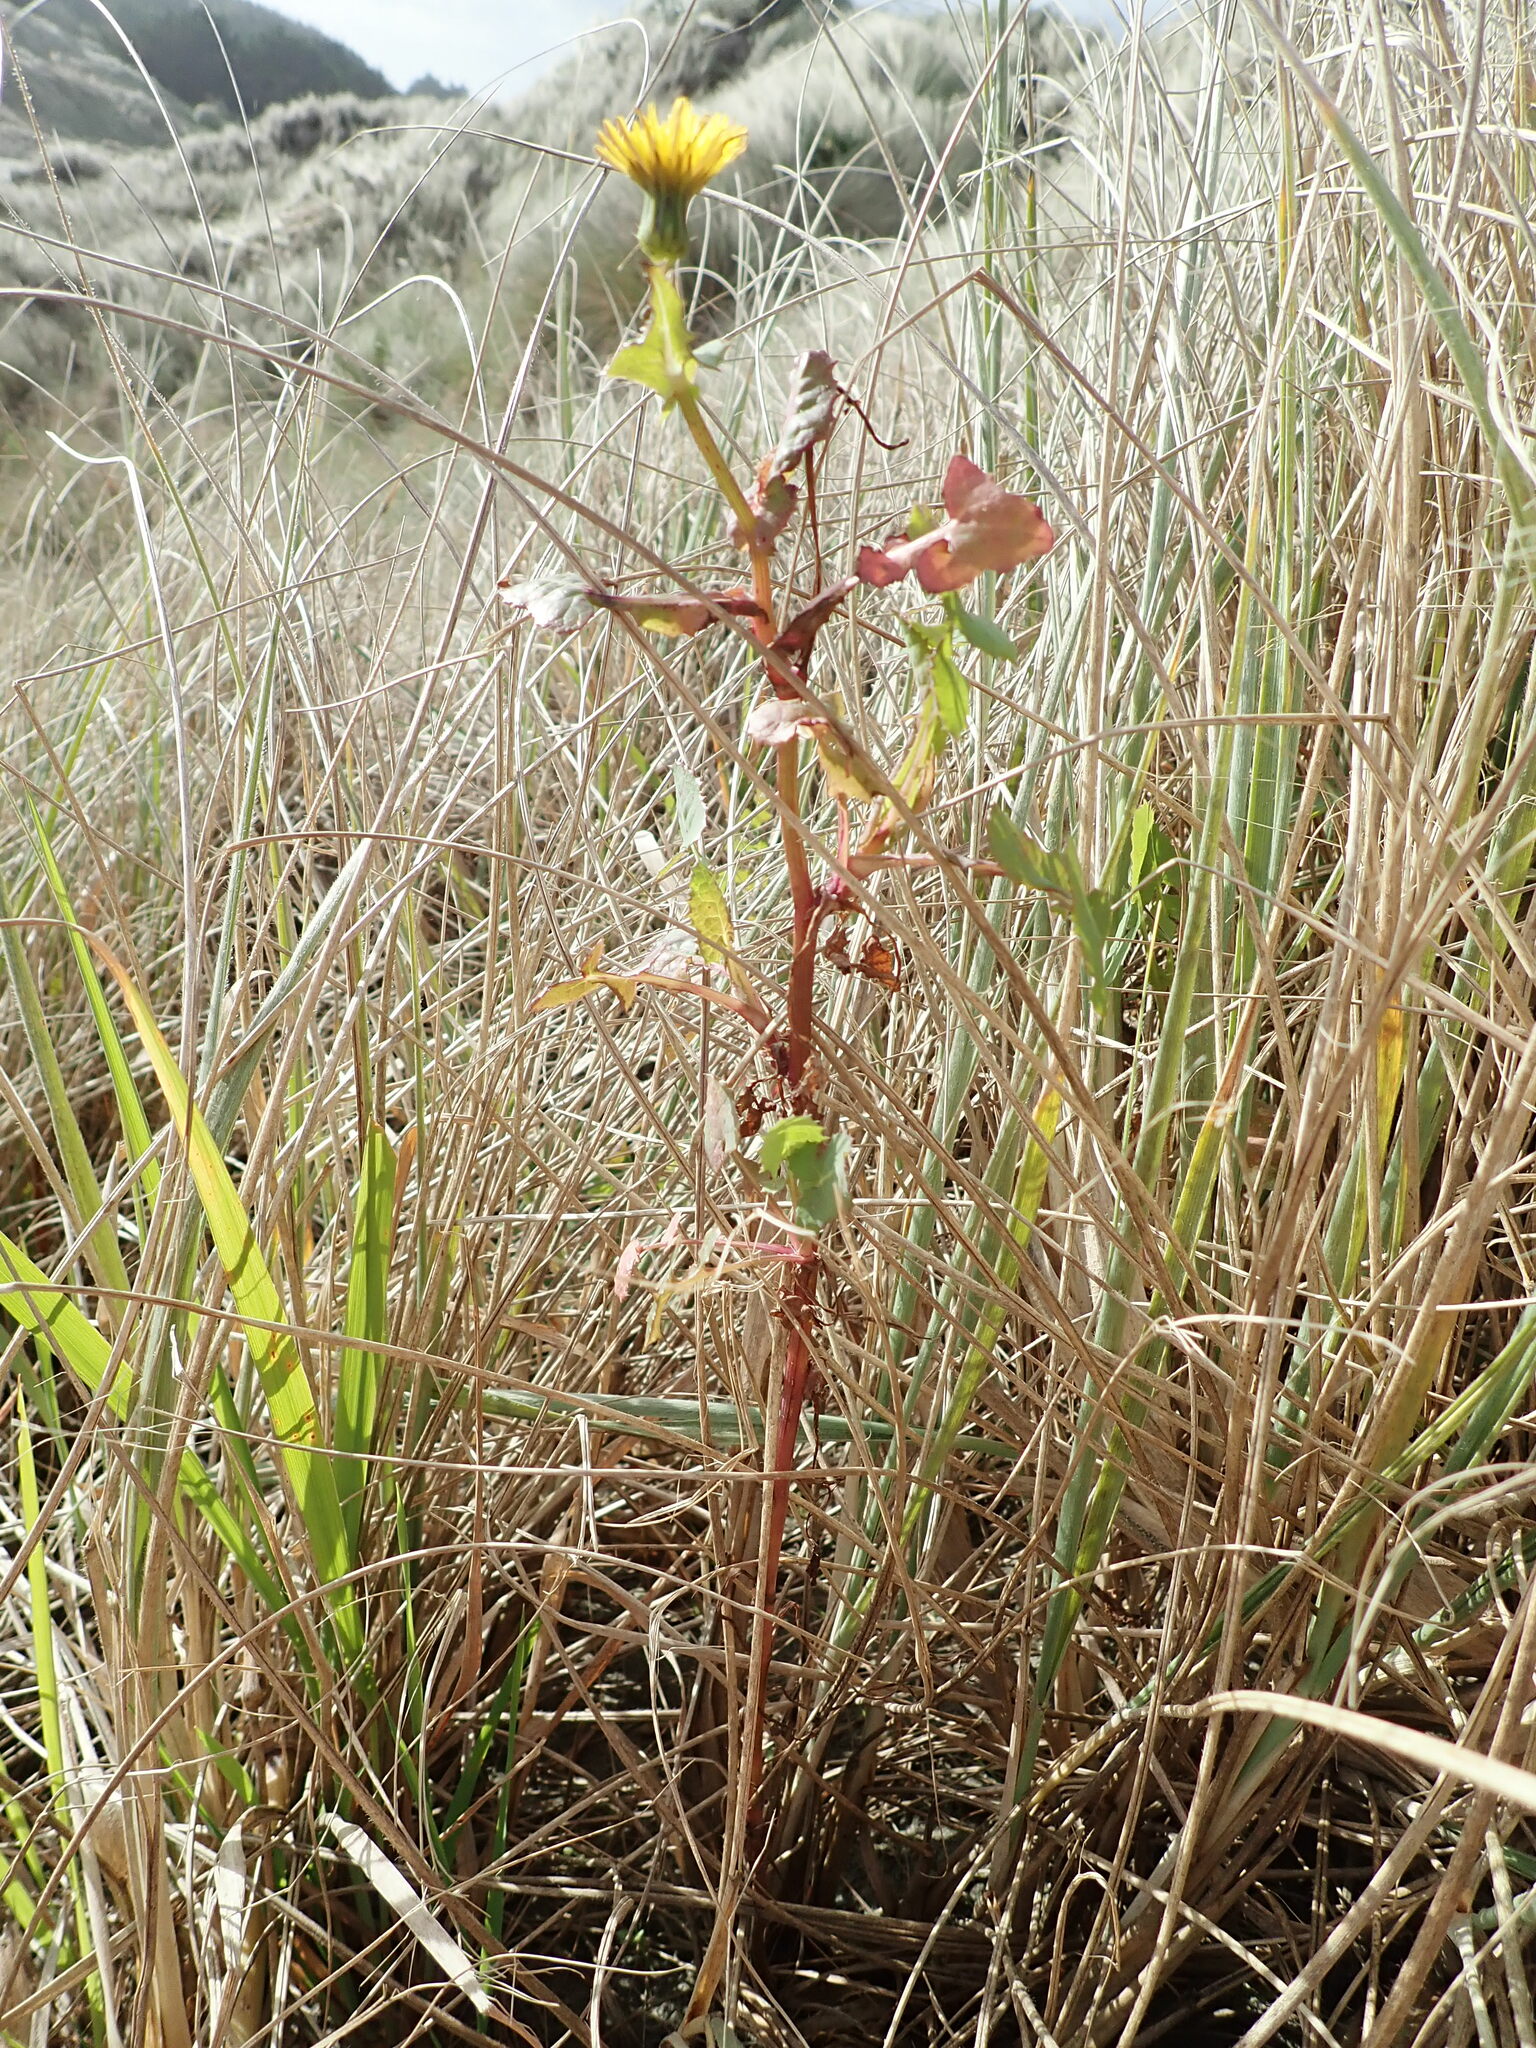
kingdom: Plantae
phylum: Tracheophyta
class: Magnoliopsida
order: Asterales
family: Asteraceae
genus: Sonchus
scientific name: Sonchus oleraceus
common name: Common sowthistle
